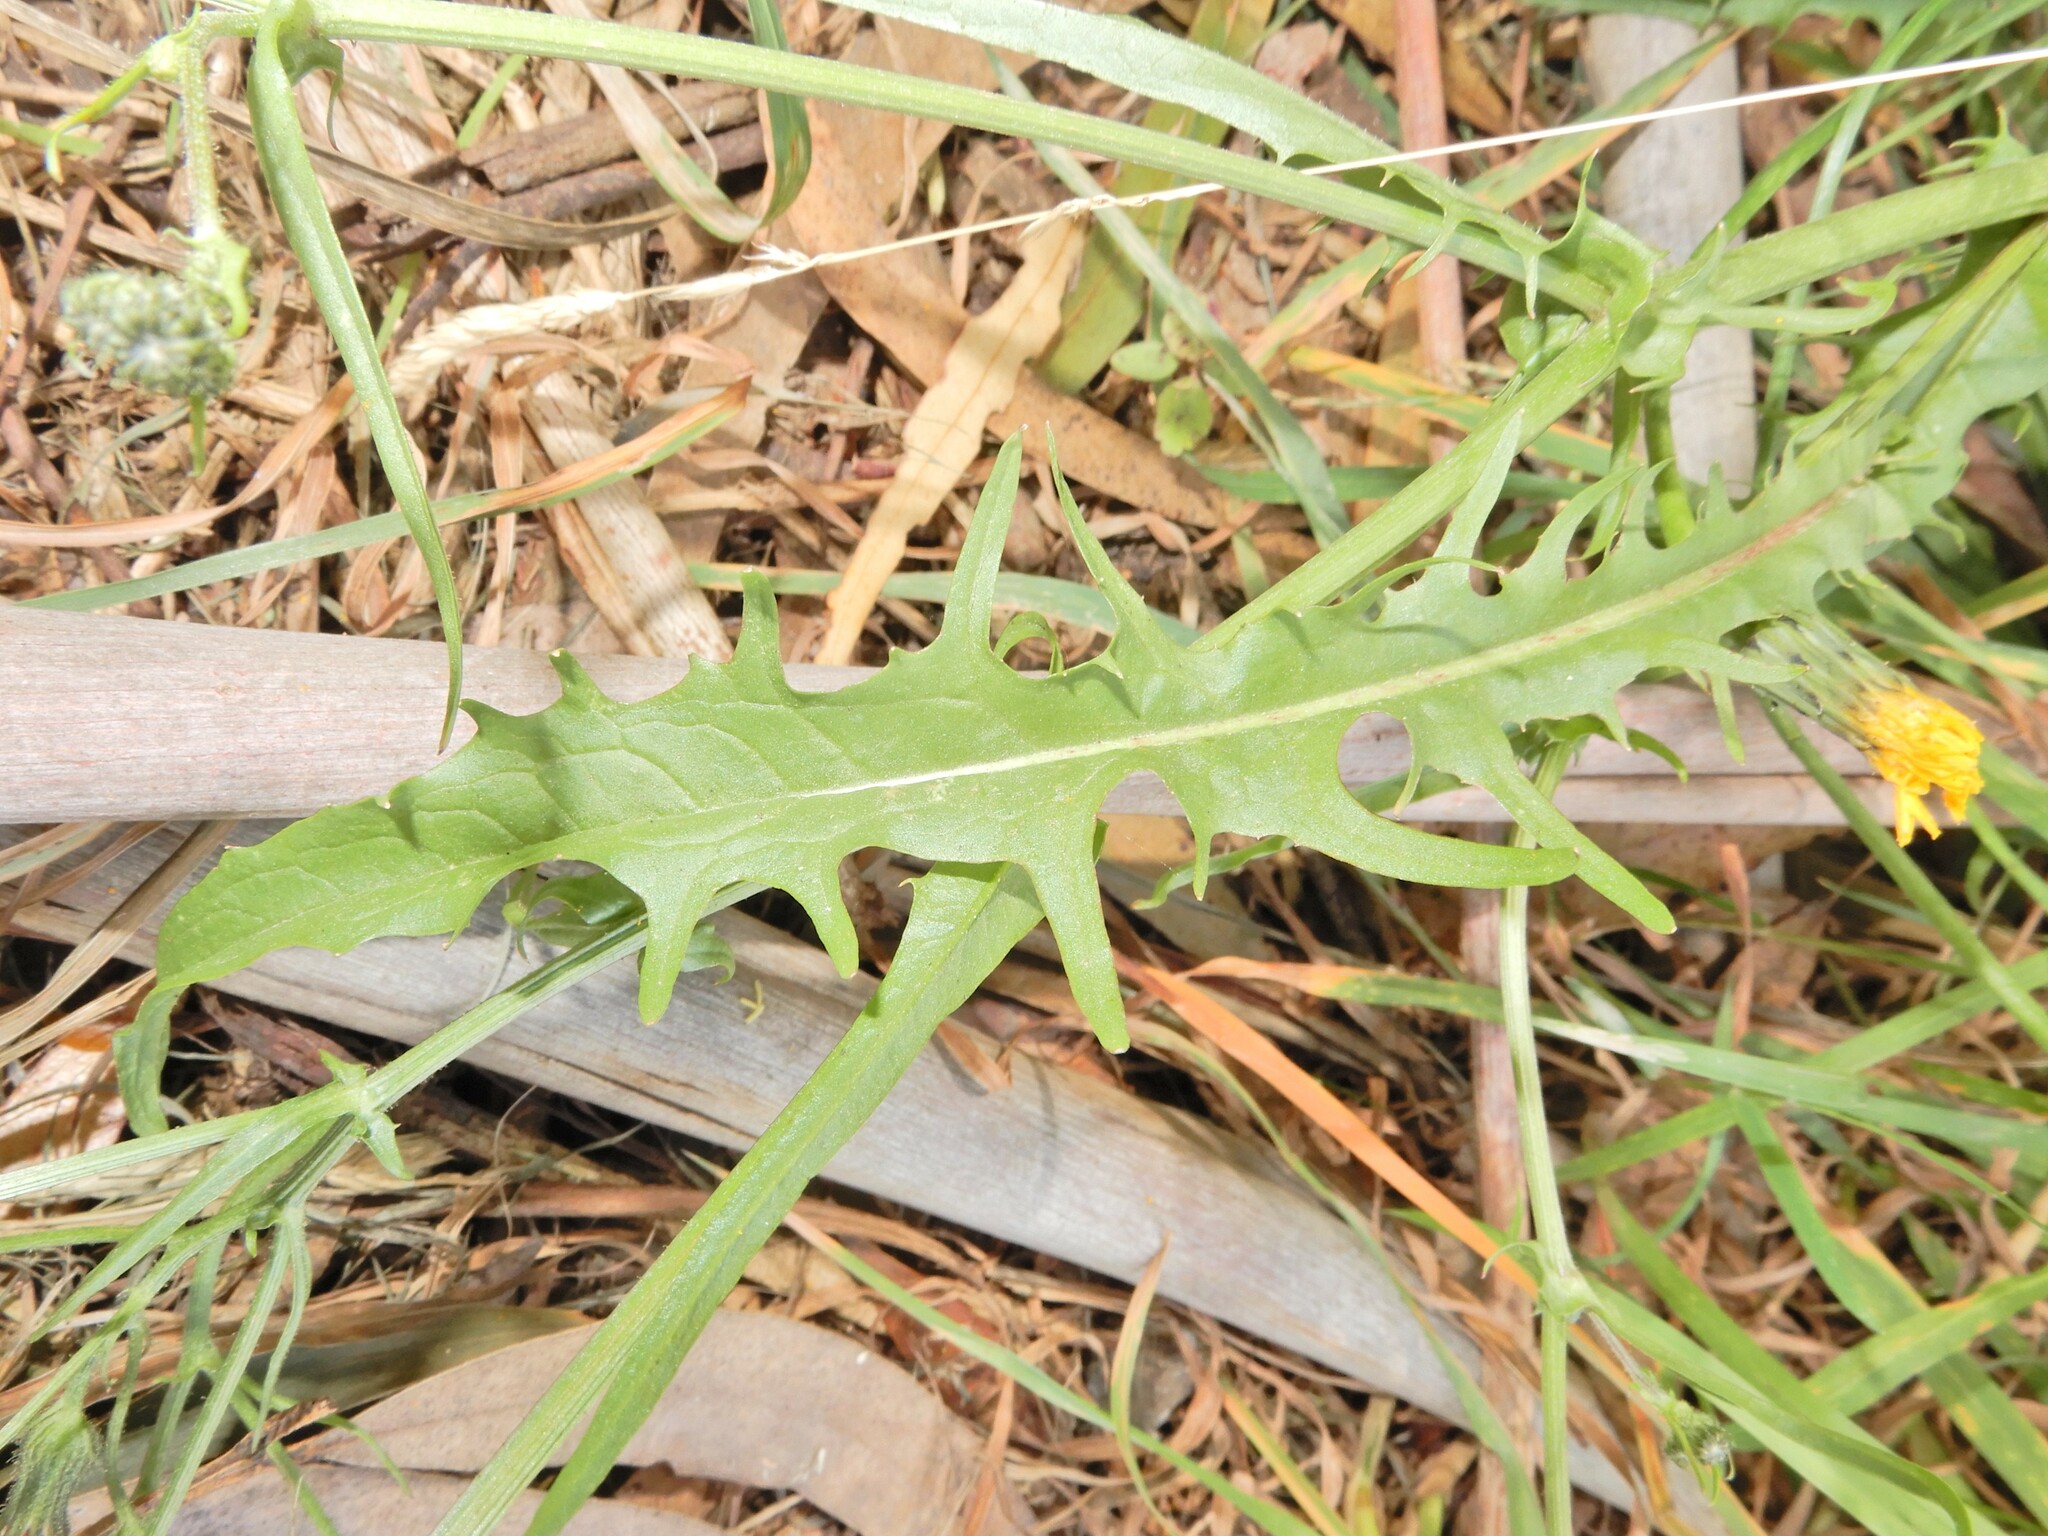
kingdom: Plantae
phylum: Tracheophyta
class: Magnoliopsida
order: Asterales
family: Asteraceae
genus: Crepis
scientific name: Crepis capillaris
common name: Smooth hawksbeard
